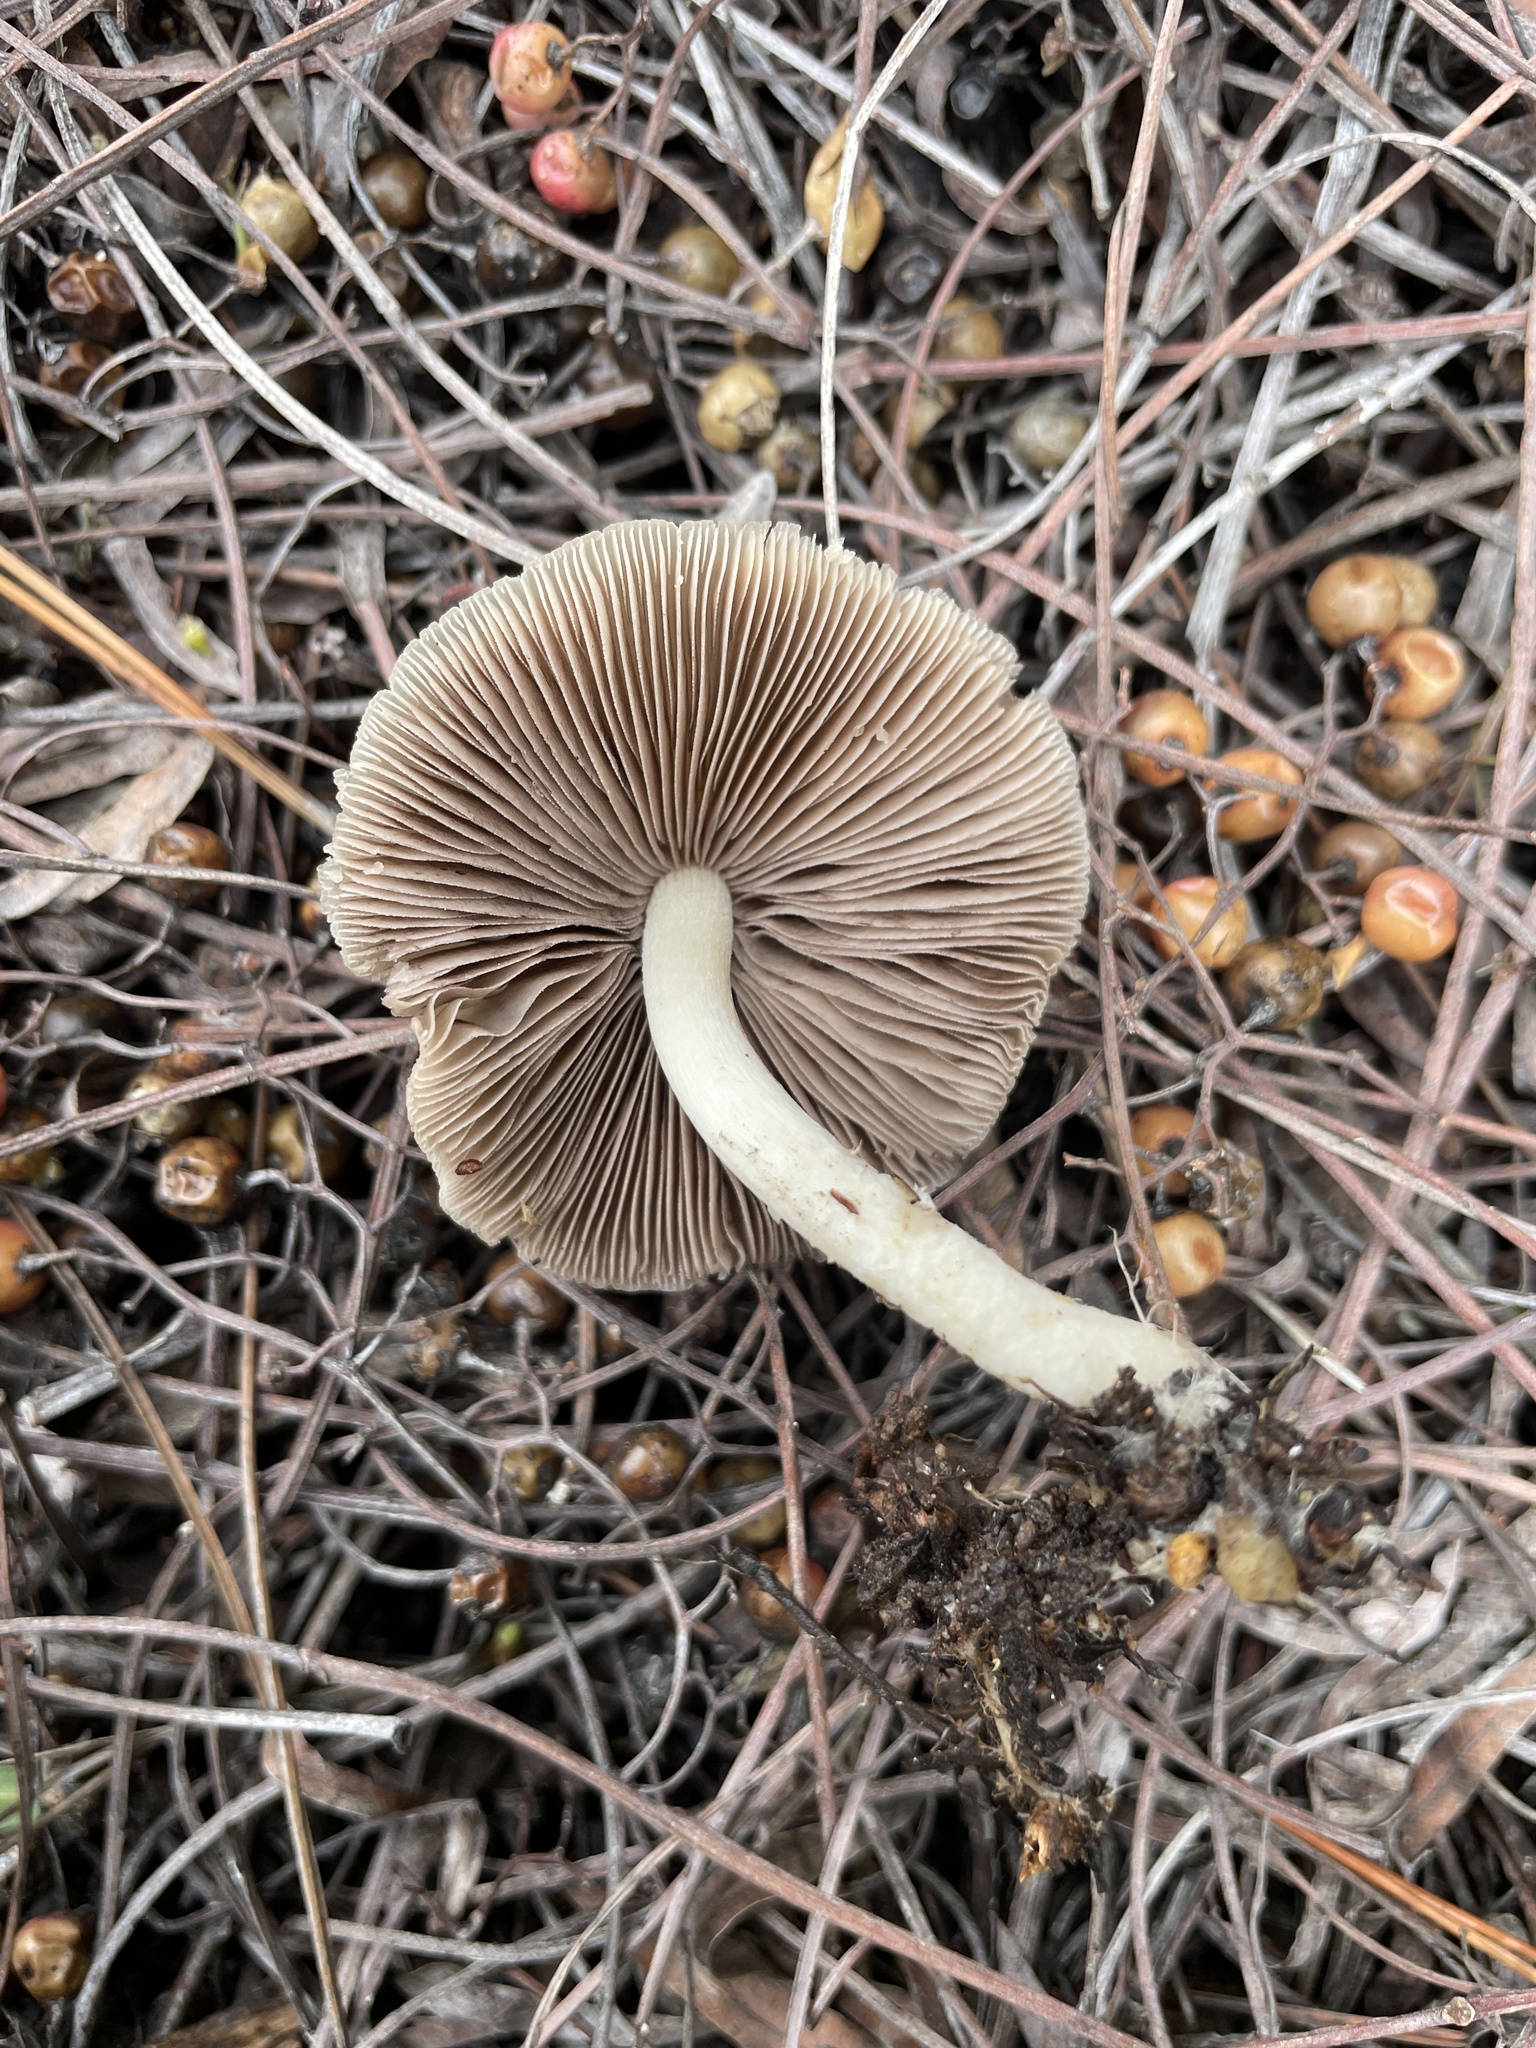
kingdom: Fungi
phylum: Basidiomycota
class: Agaricomycetes
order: Agaricales
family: Psathyrellaceae
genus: Candolleomyces
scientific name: Candolleomyces candolleanus
